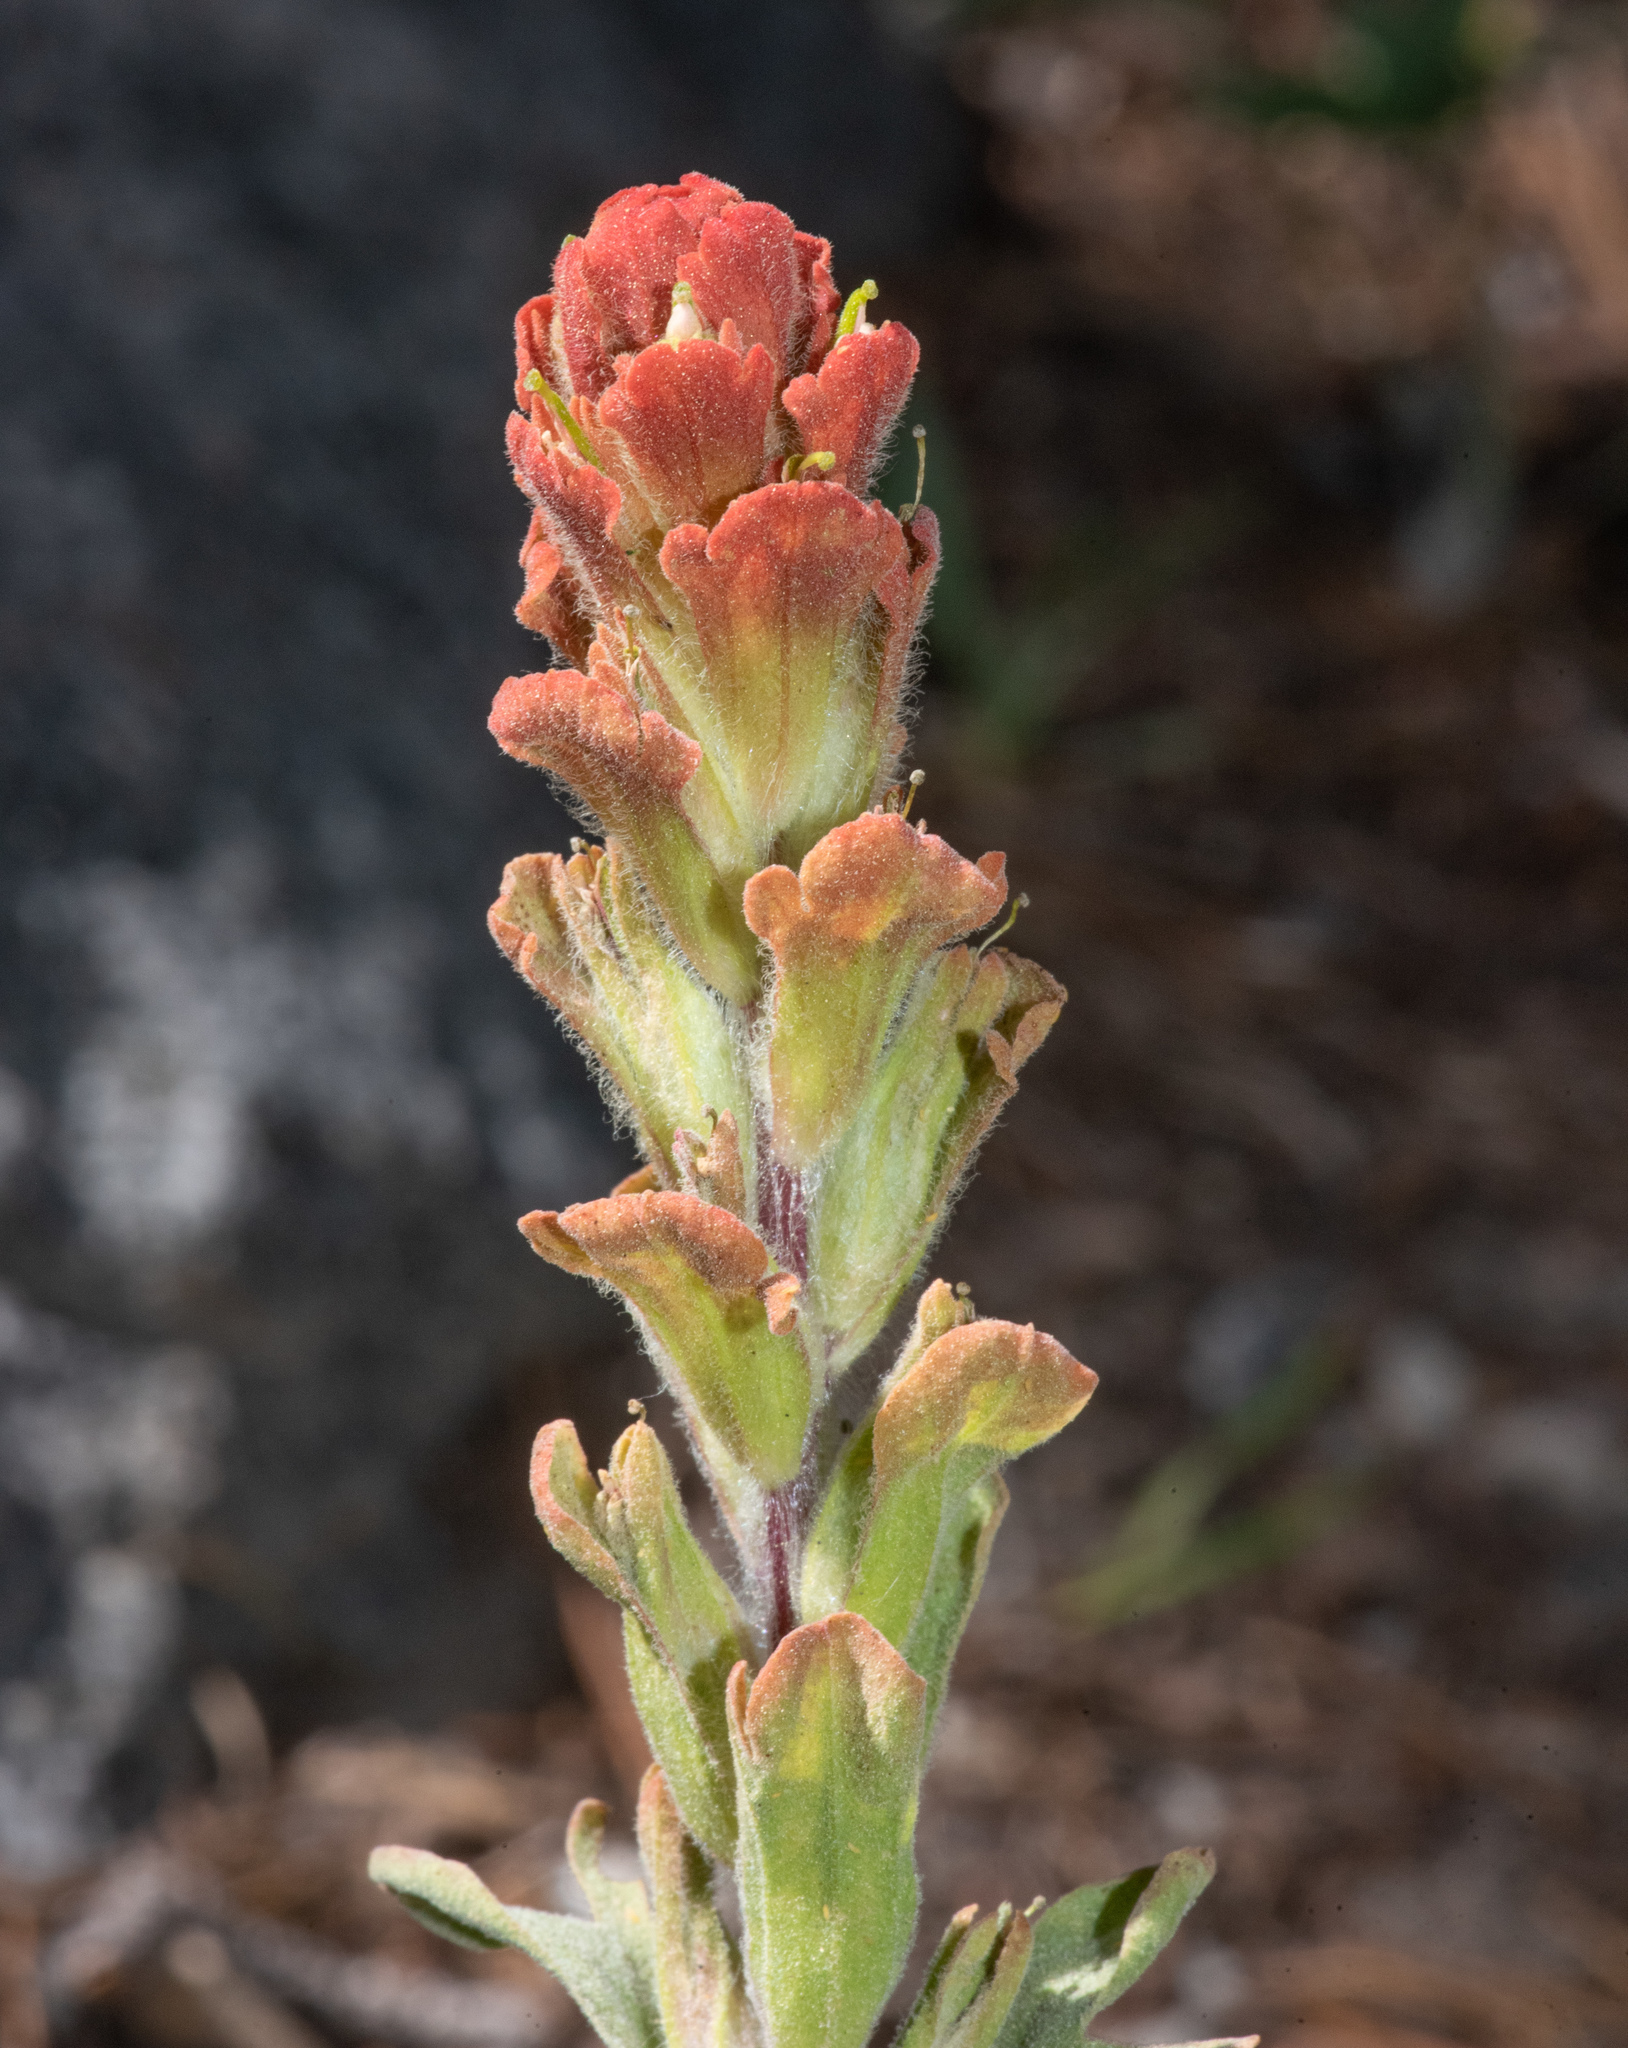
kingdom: Plantae
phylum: Tracheophyta
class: Magnoliopsida
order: Lamiales
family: Orobanchaceae
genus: Castilleja
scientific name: Castilleja arachnoidea
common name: Cobwebby indian paintbrush
